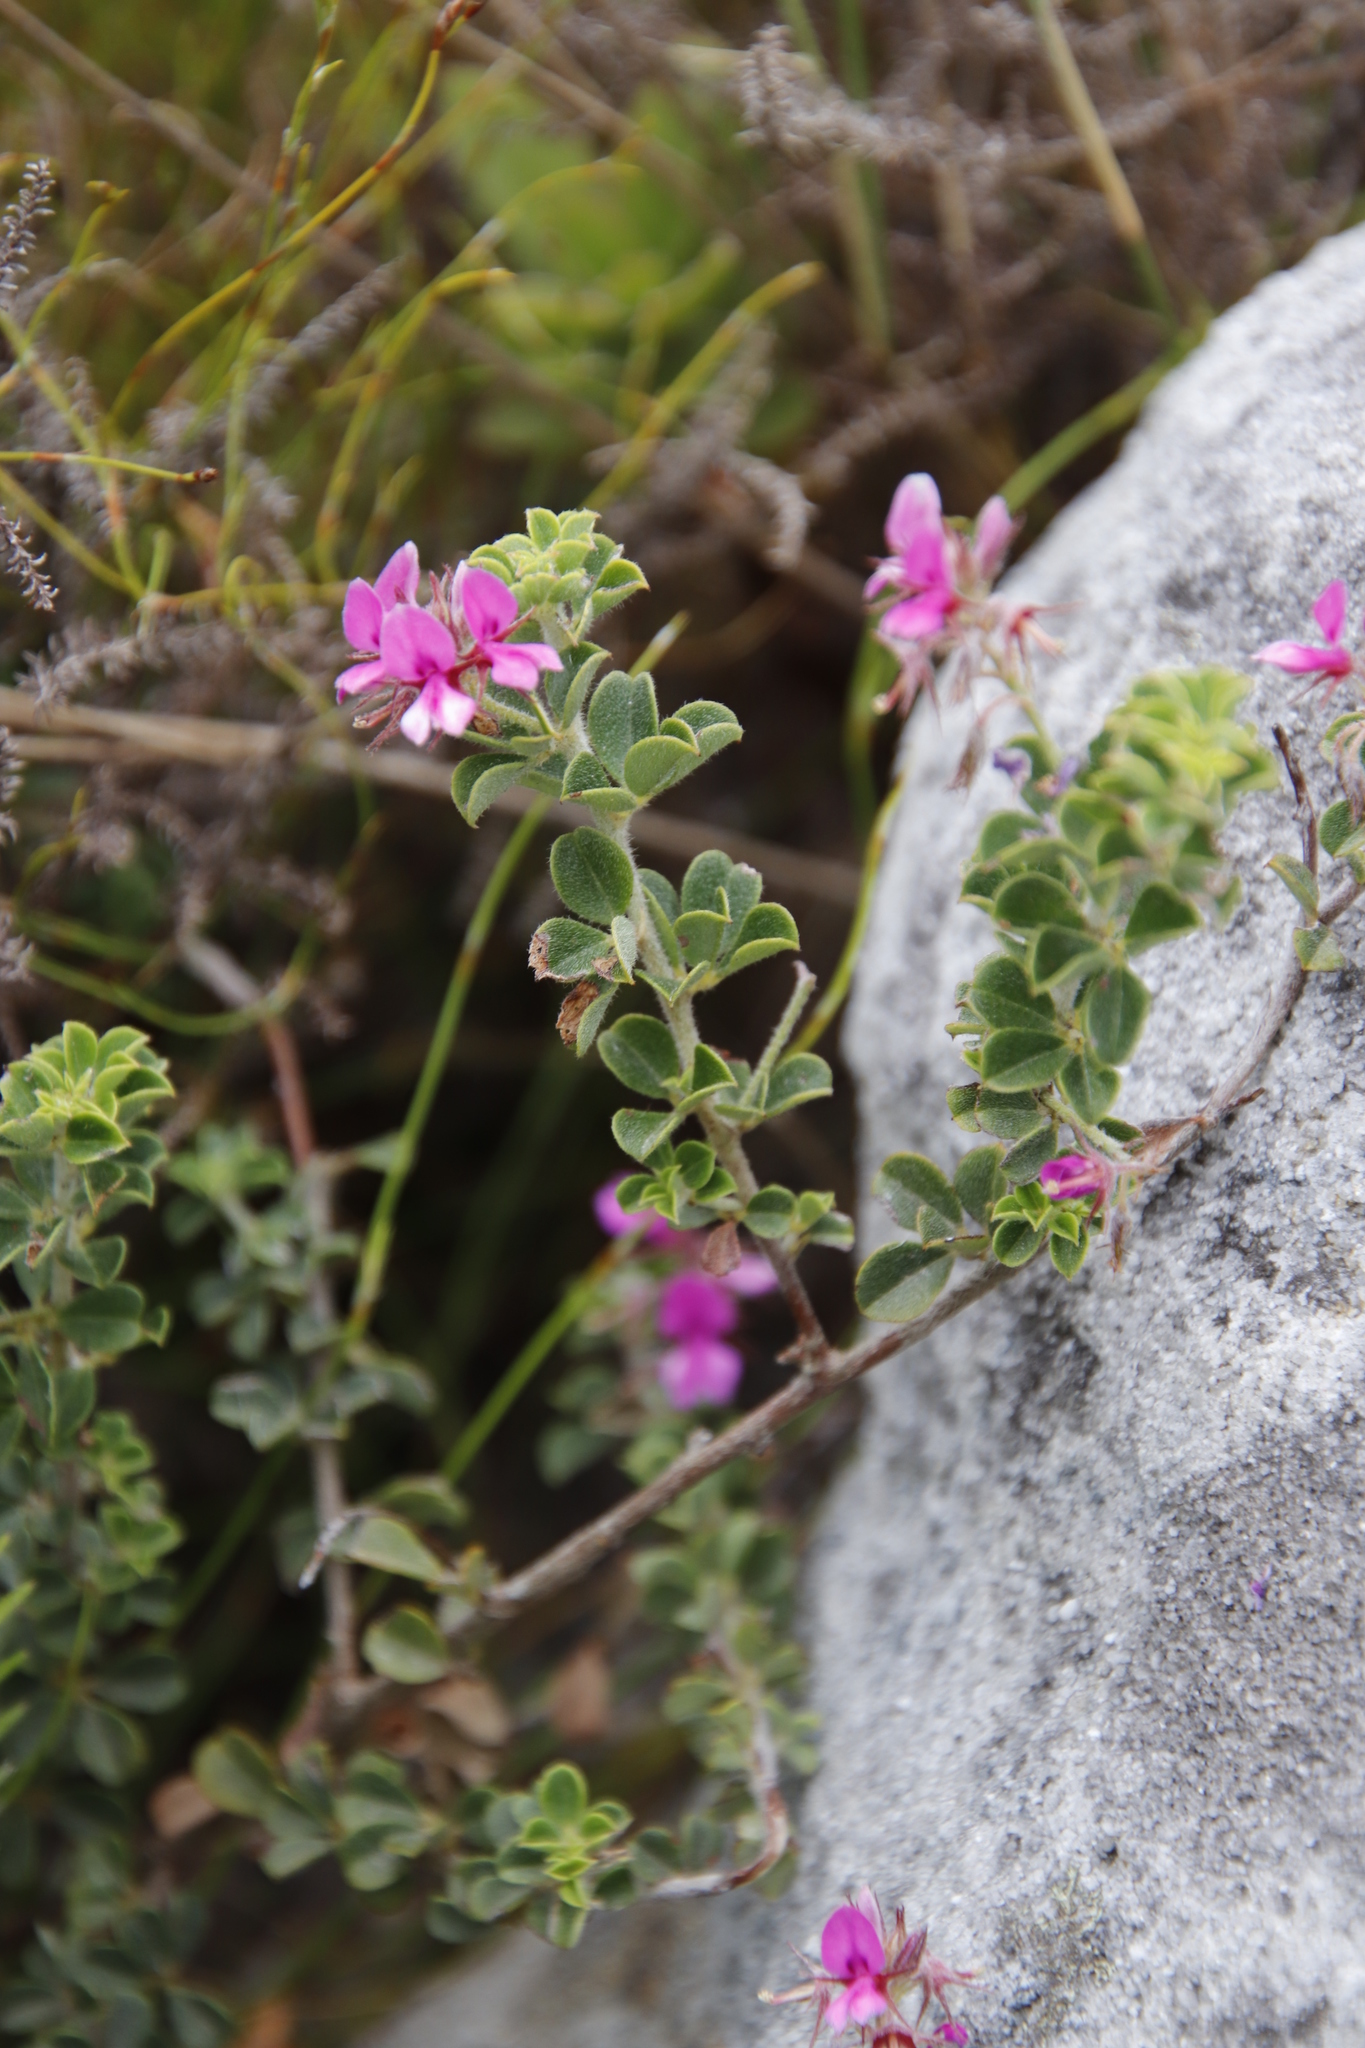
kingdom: Plantae
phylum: Tracheophyta
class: Magnoliopsida
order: Fabales
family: Fabaceae
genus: Indigofera
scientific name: Indigofera candolleana
